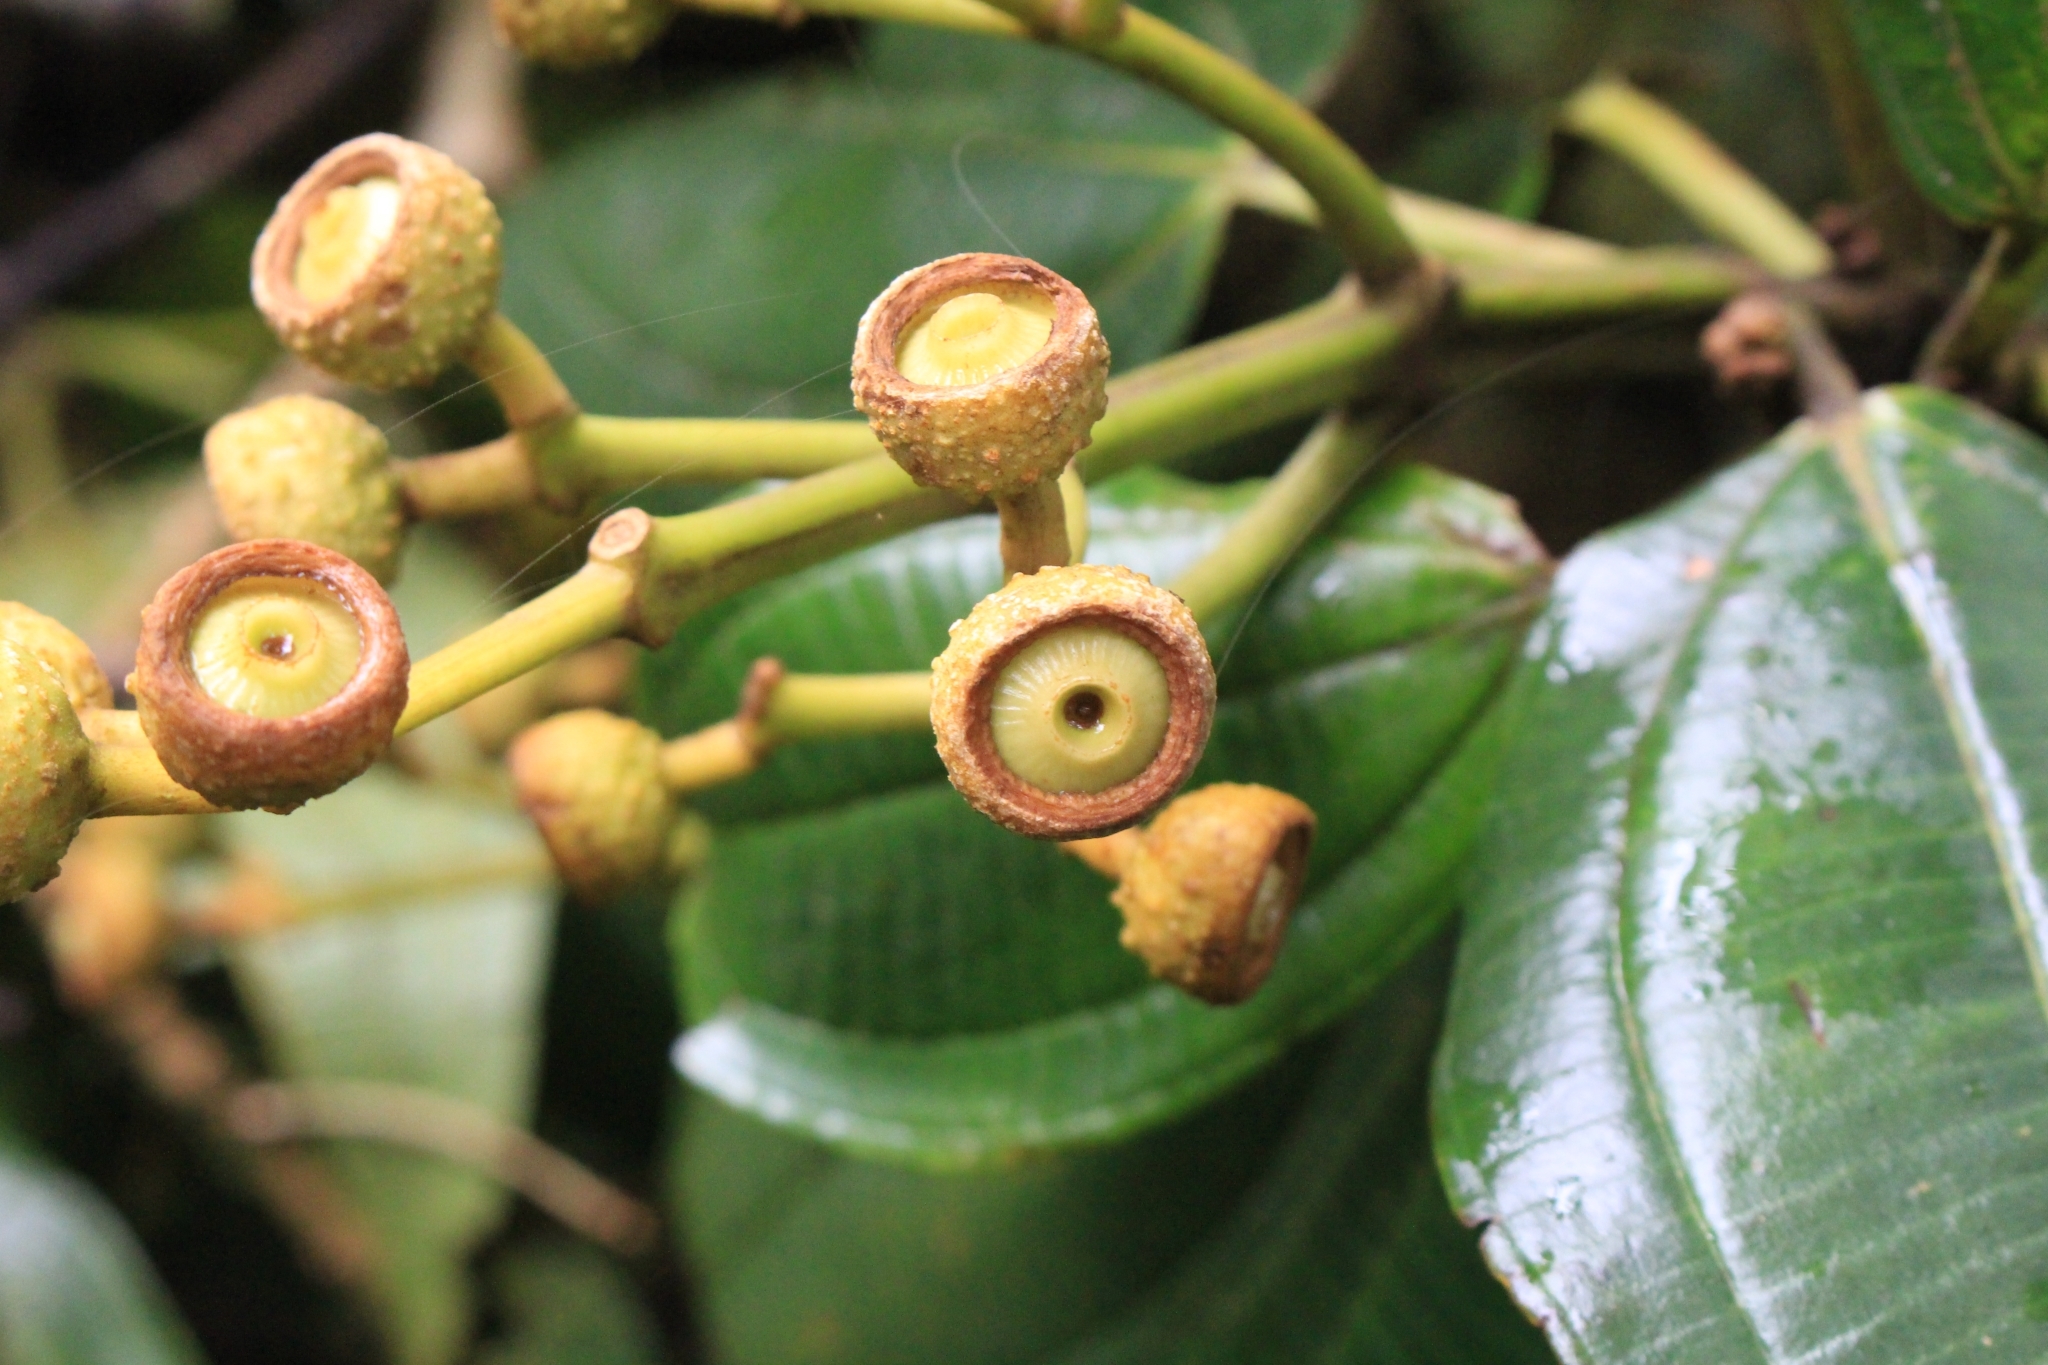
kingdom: Plantae
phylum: Tracheophyta
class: Magnoliopsida
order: Myrtales
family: Melastomataceae
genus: Miconia
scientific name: Miconia conomacrantha
